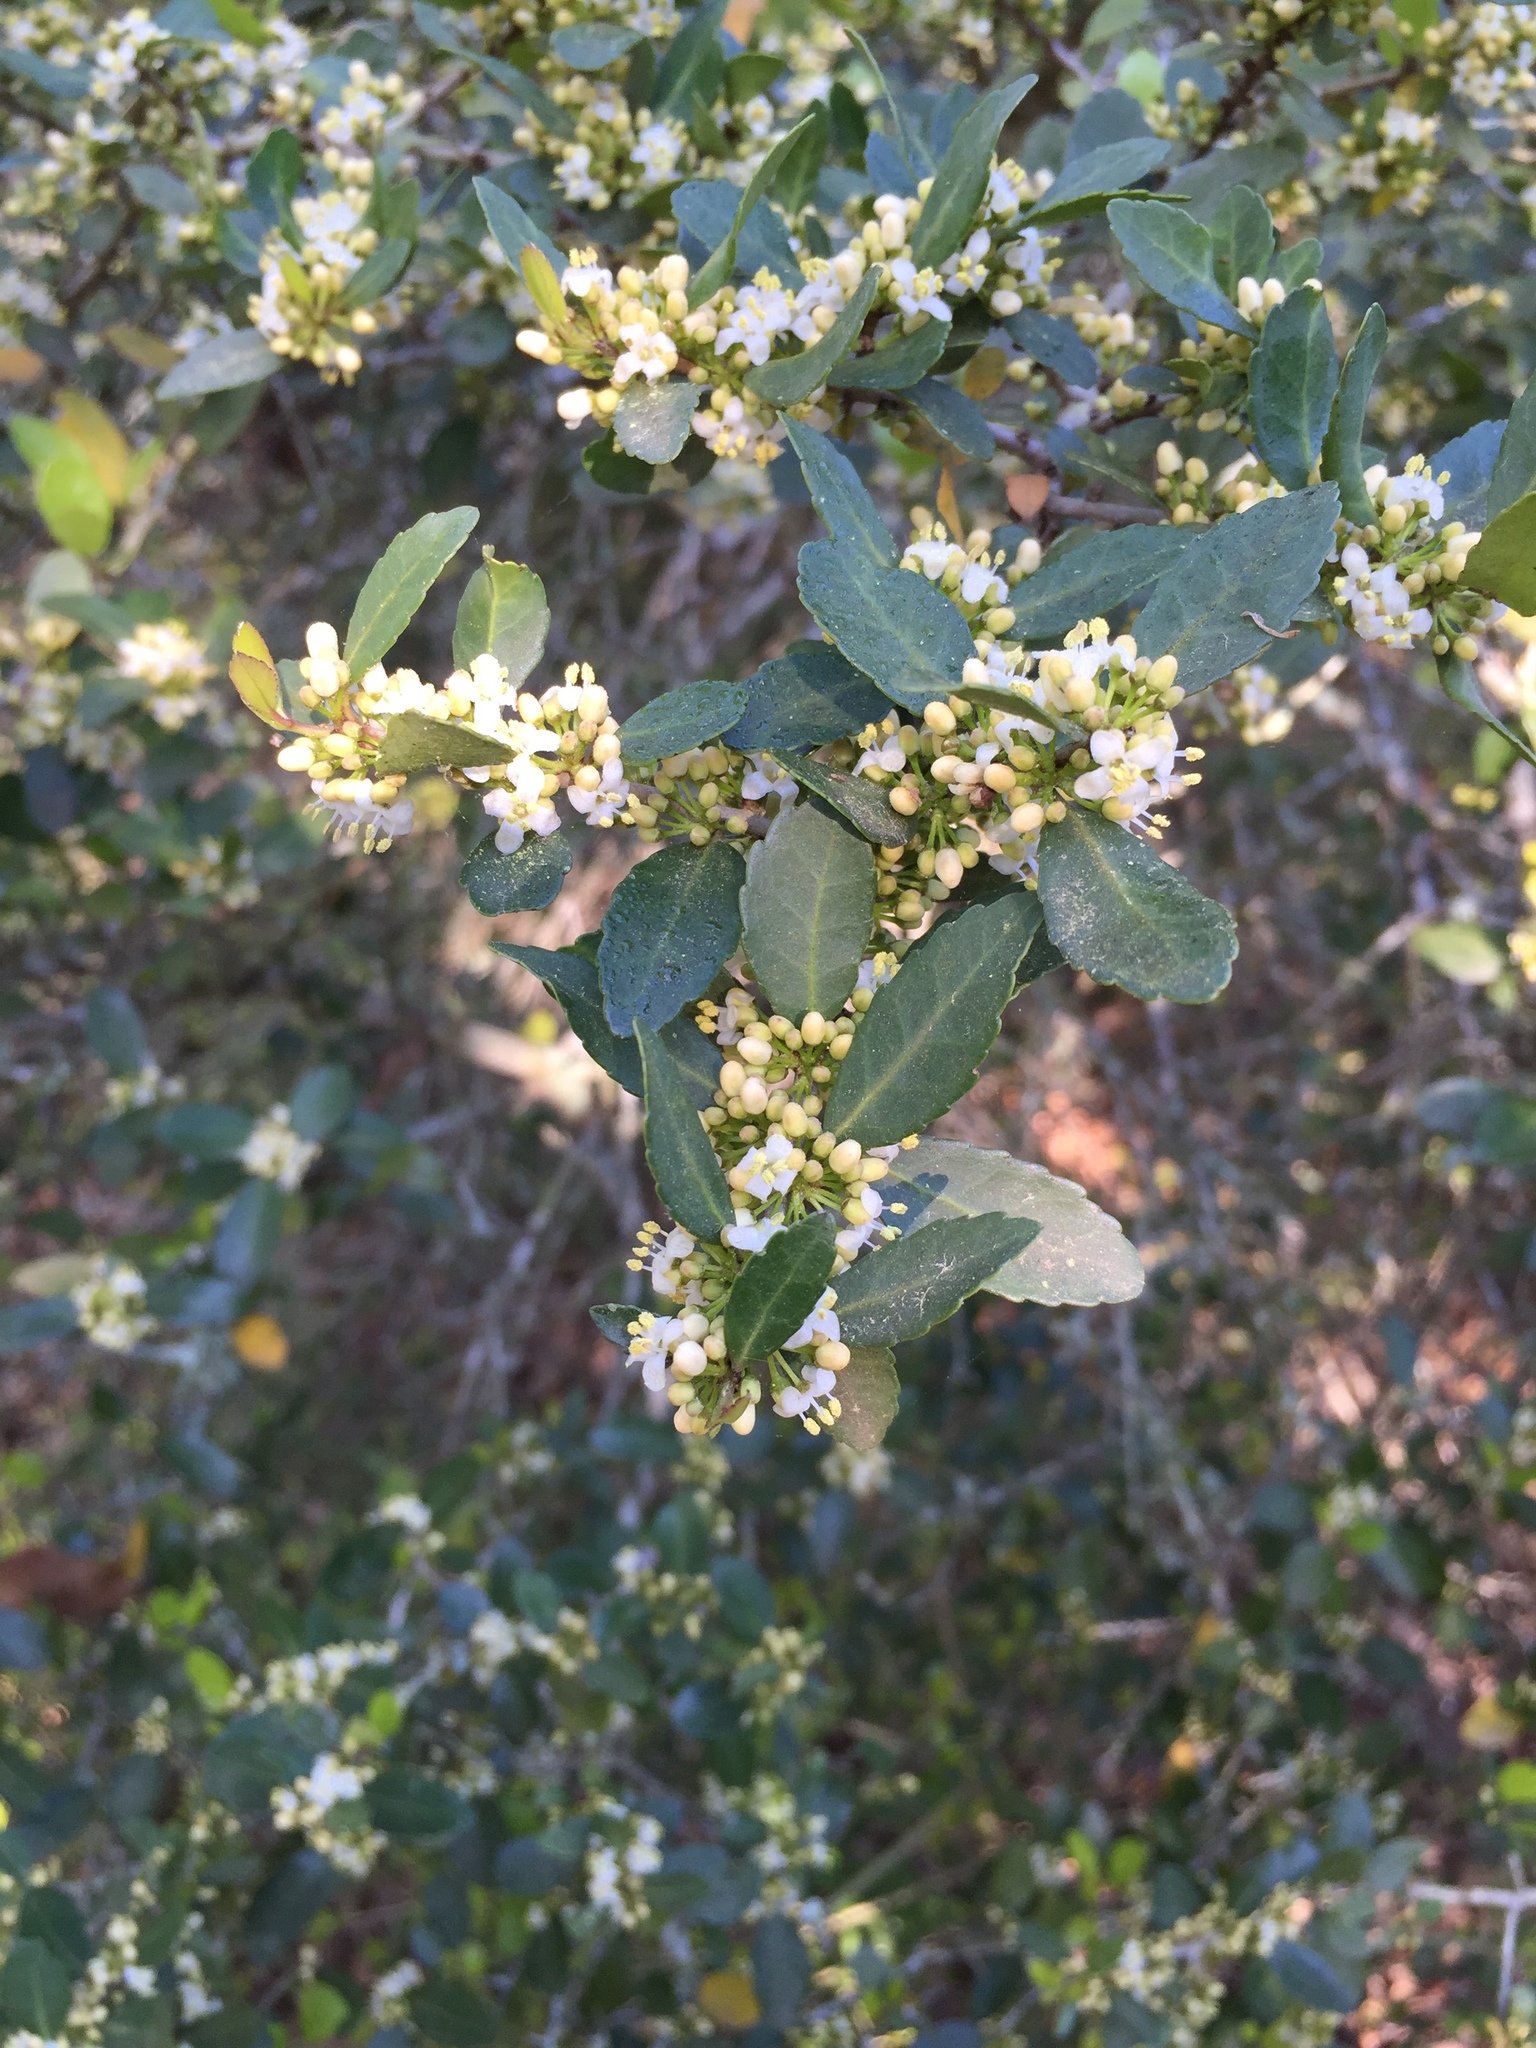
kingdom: Plantae
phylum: Tracheophyta
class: Magnoliopsida
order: Aquifoliales
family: Aquifoliaceae
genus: Ilex
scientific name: Ilex vomitoria
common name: Yaupon holly
